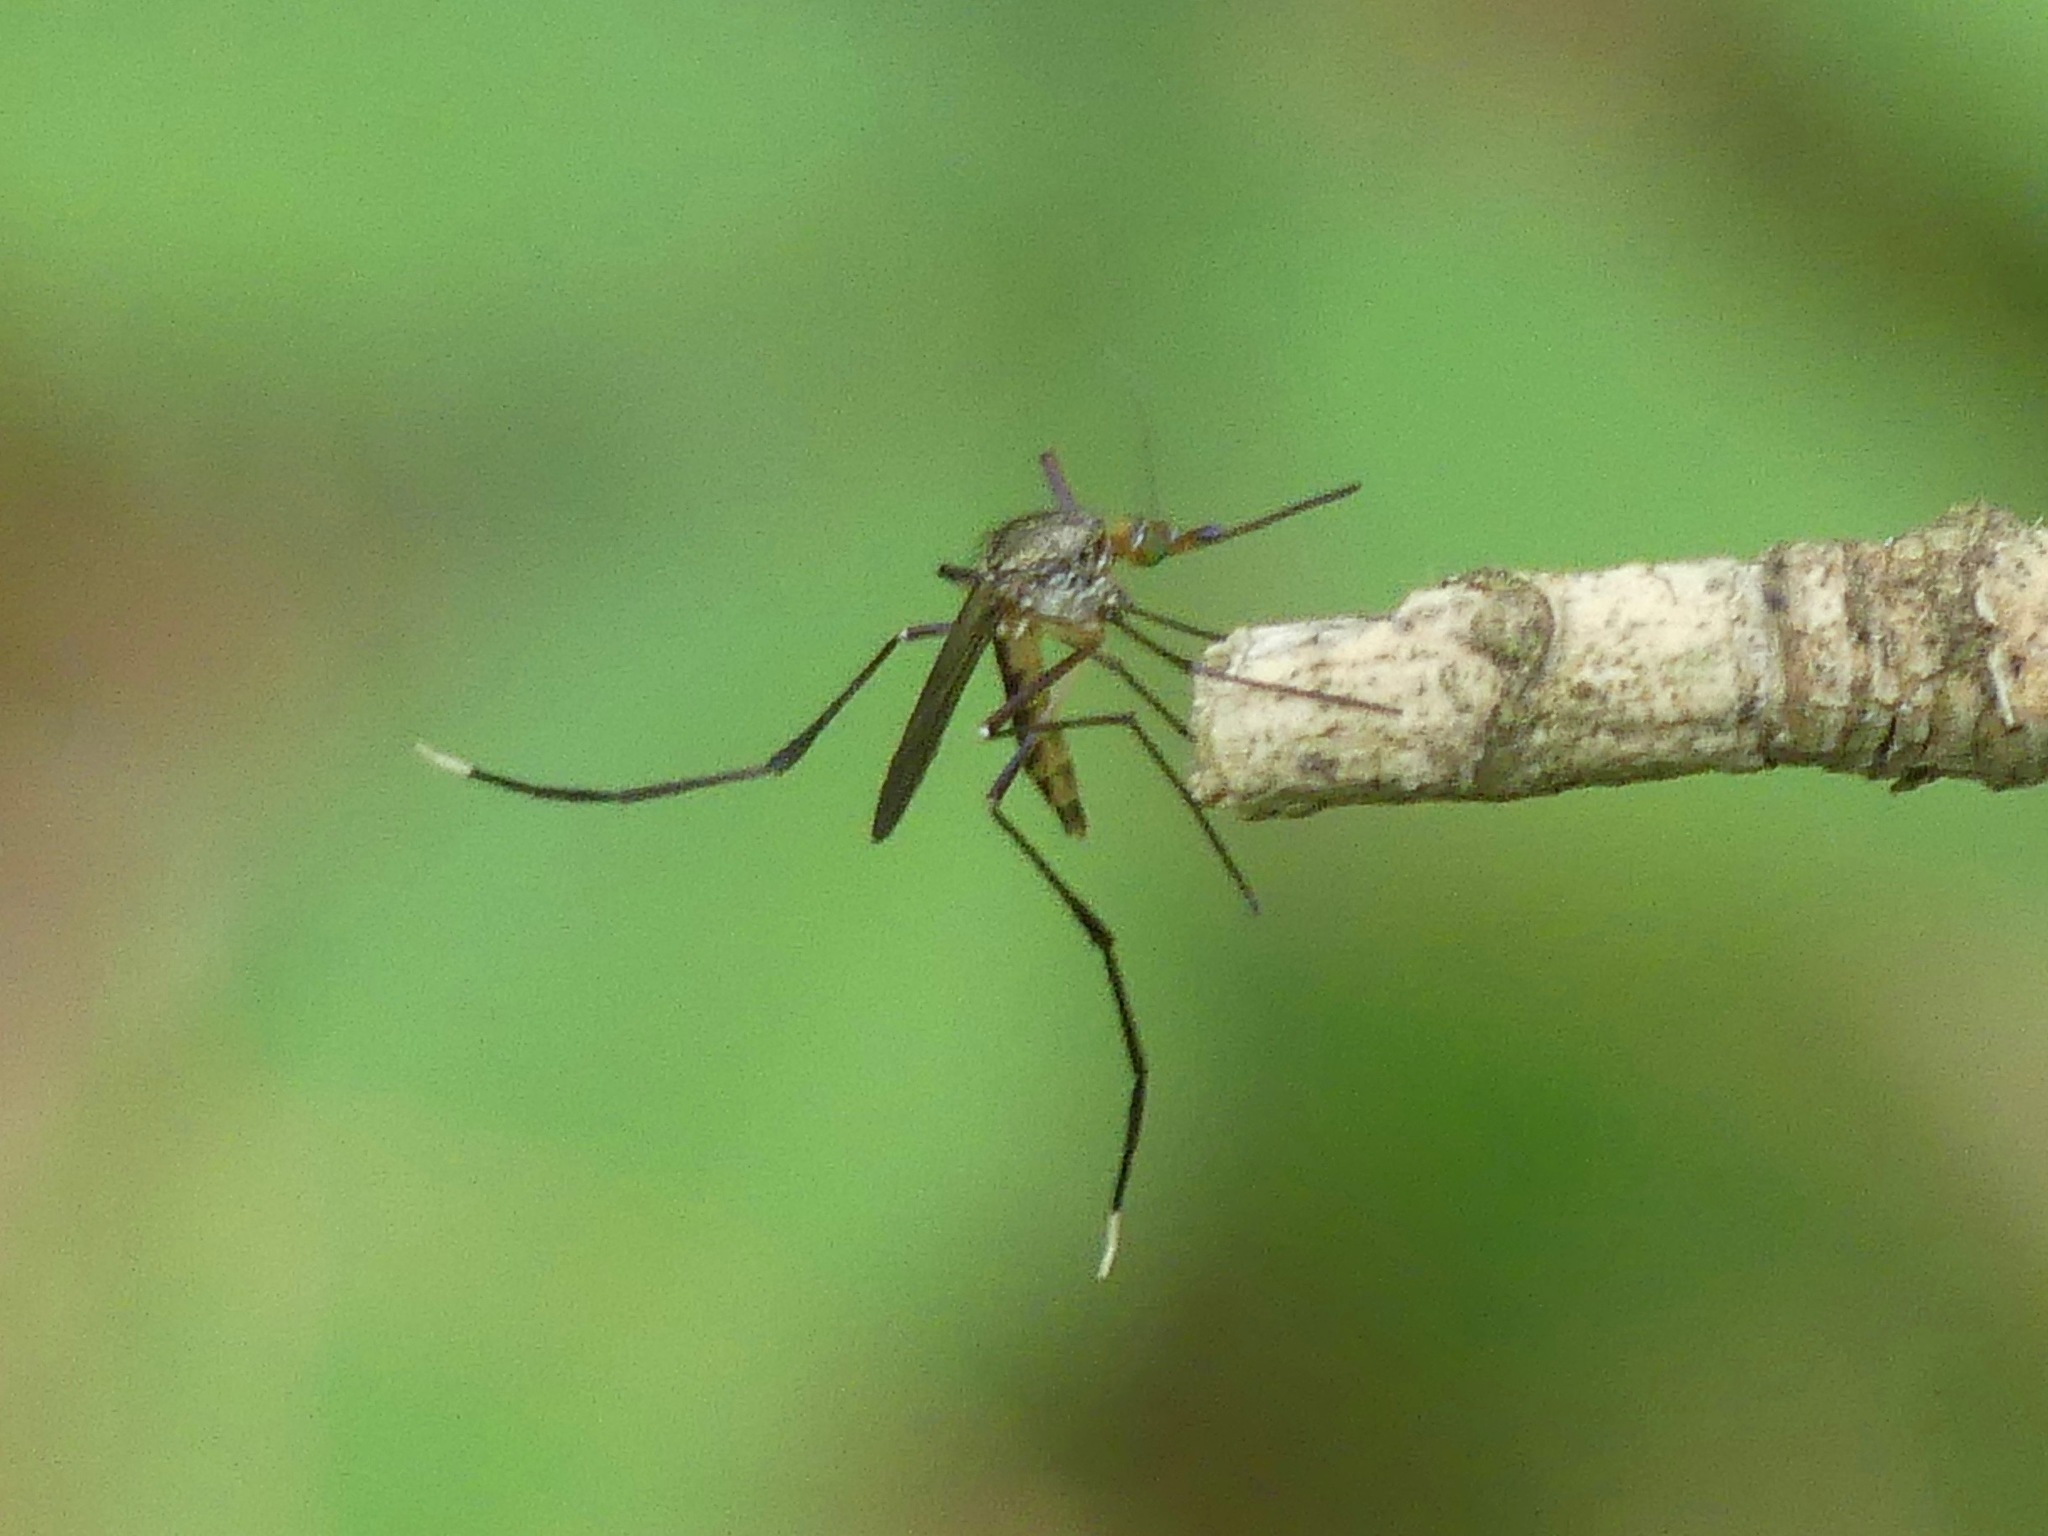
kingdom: Animalia
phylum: Arthropoda
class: Insecta
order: Diptera
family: Culicidae
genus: Psorophora
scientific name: Psorophora ferox
